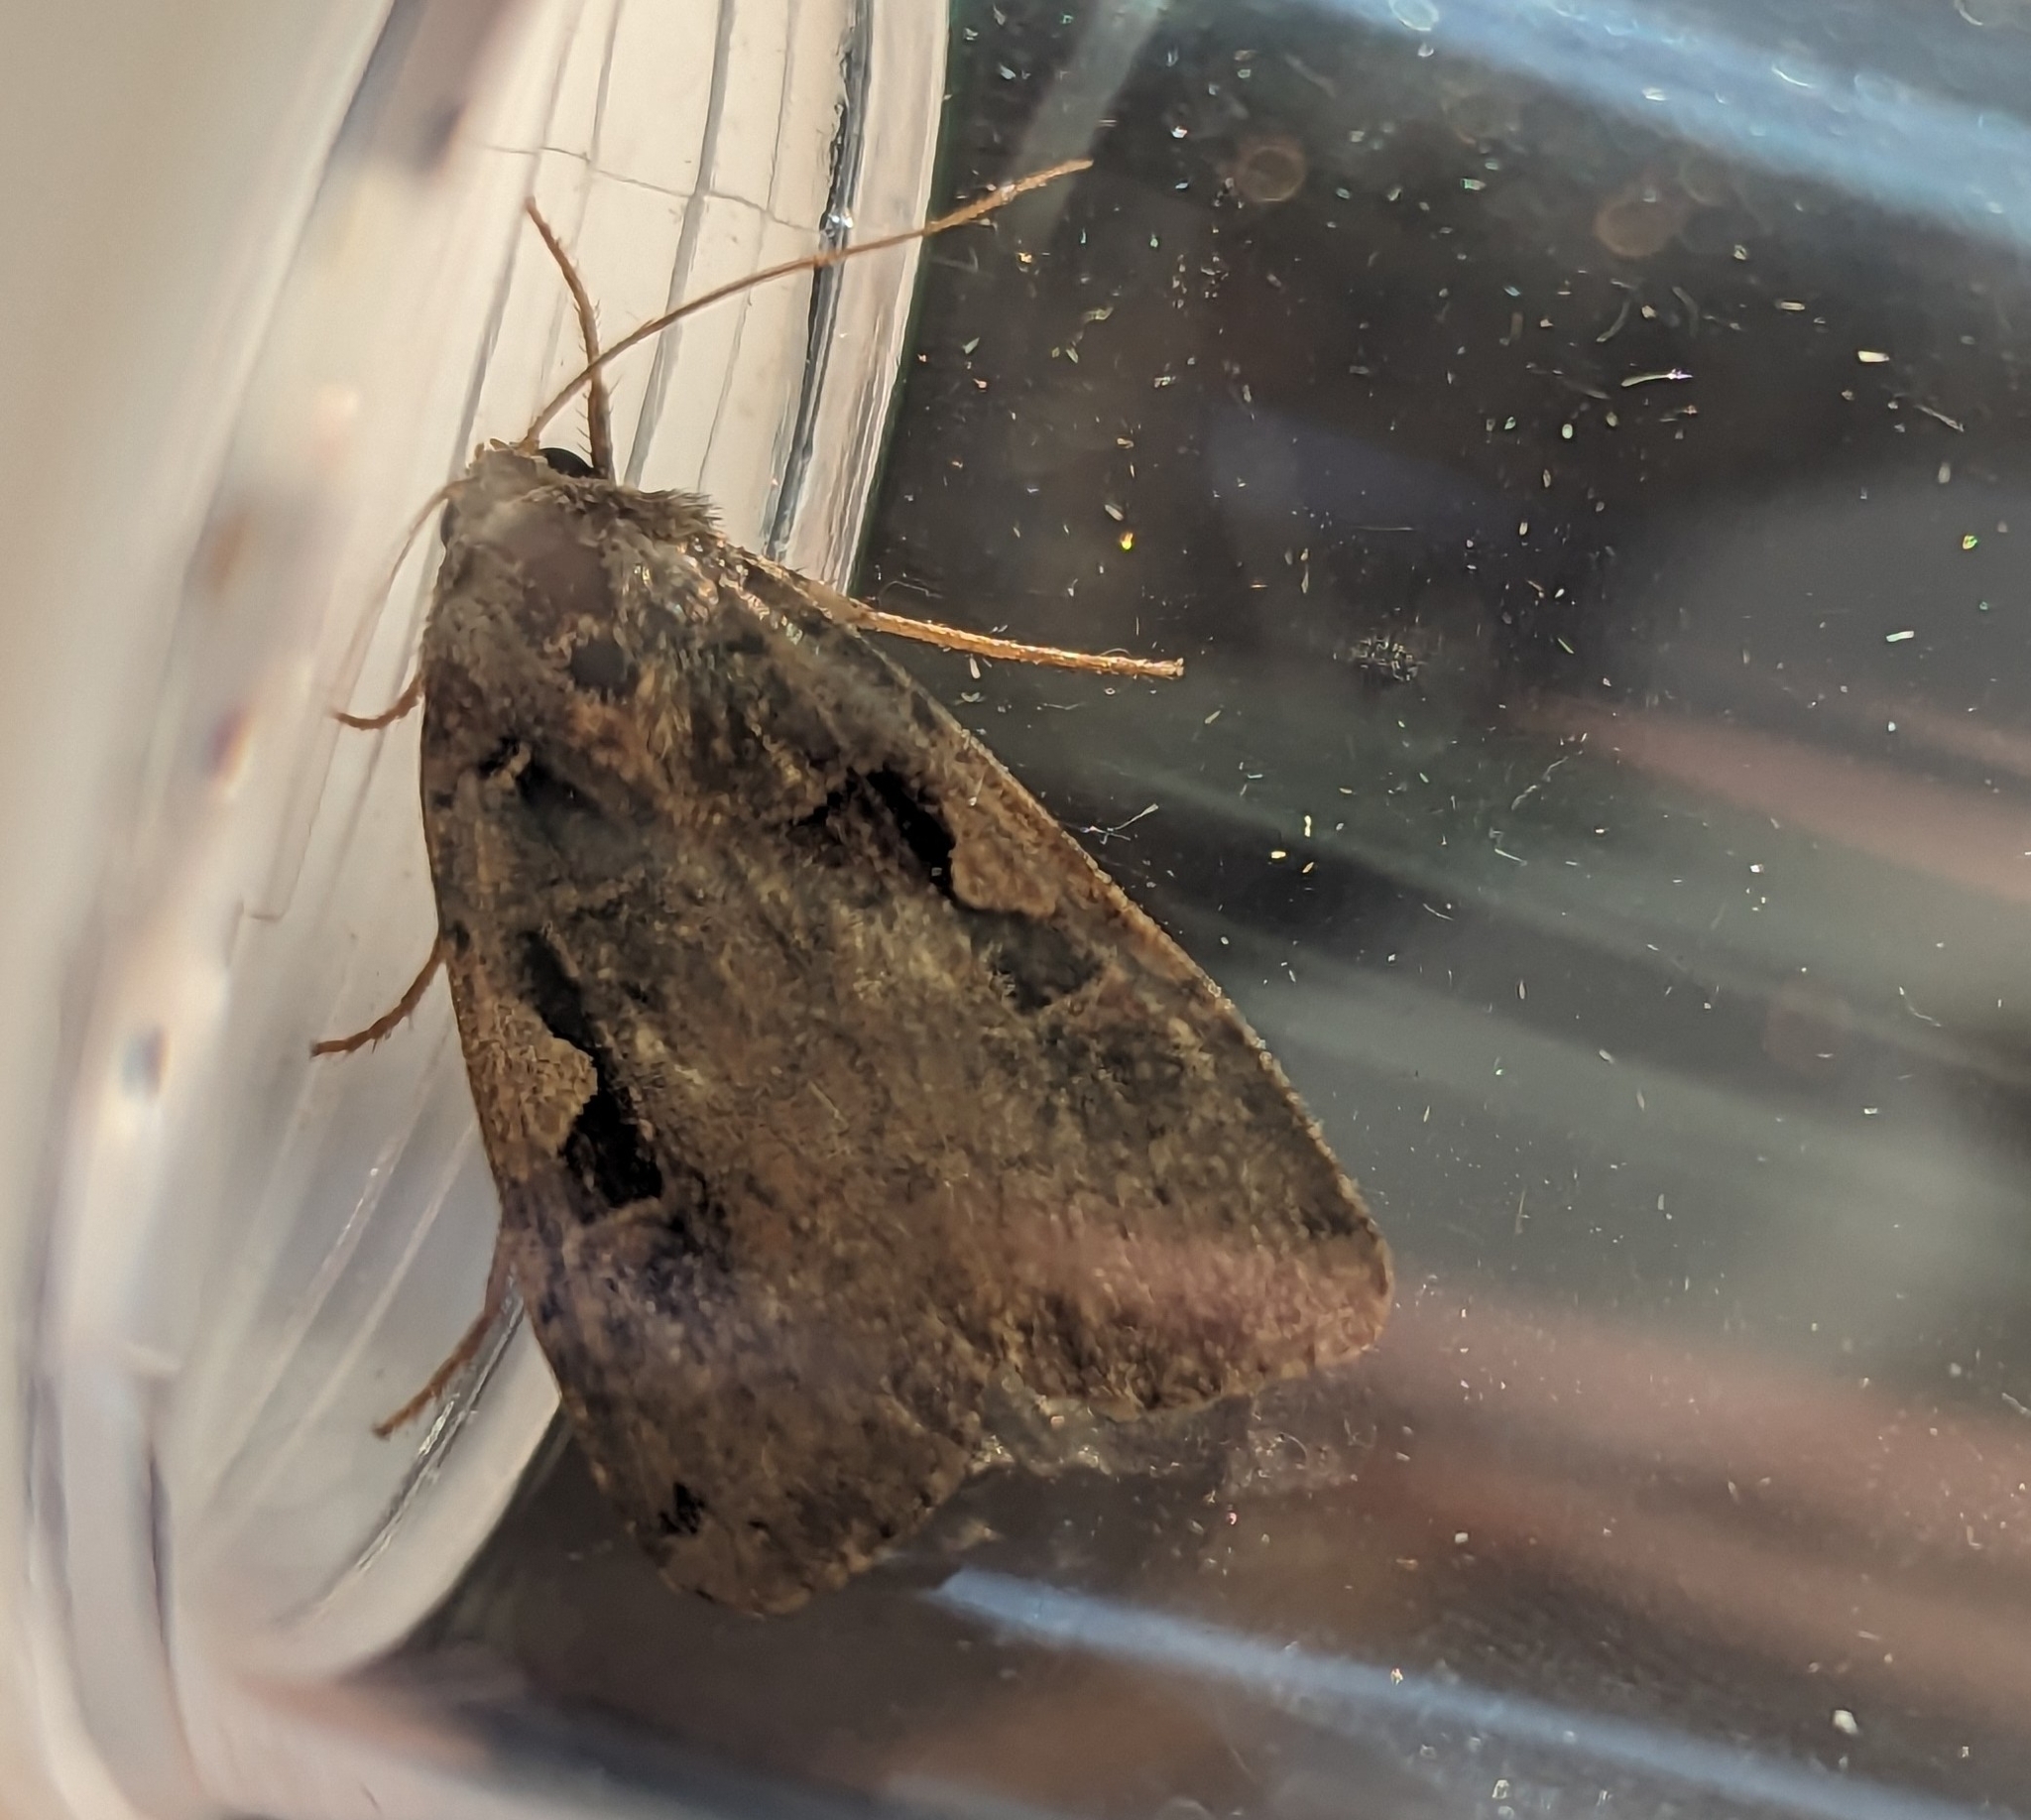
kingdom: Animalia
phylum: Arthropoda
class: Insecta
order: Lepidoptera
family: Noctuidae
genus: Xestia
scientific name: Xestia c-nigrum
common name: Setaceous hebrew character
